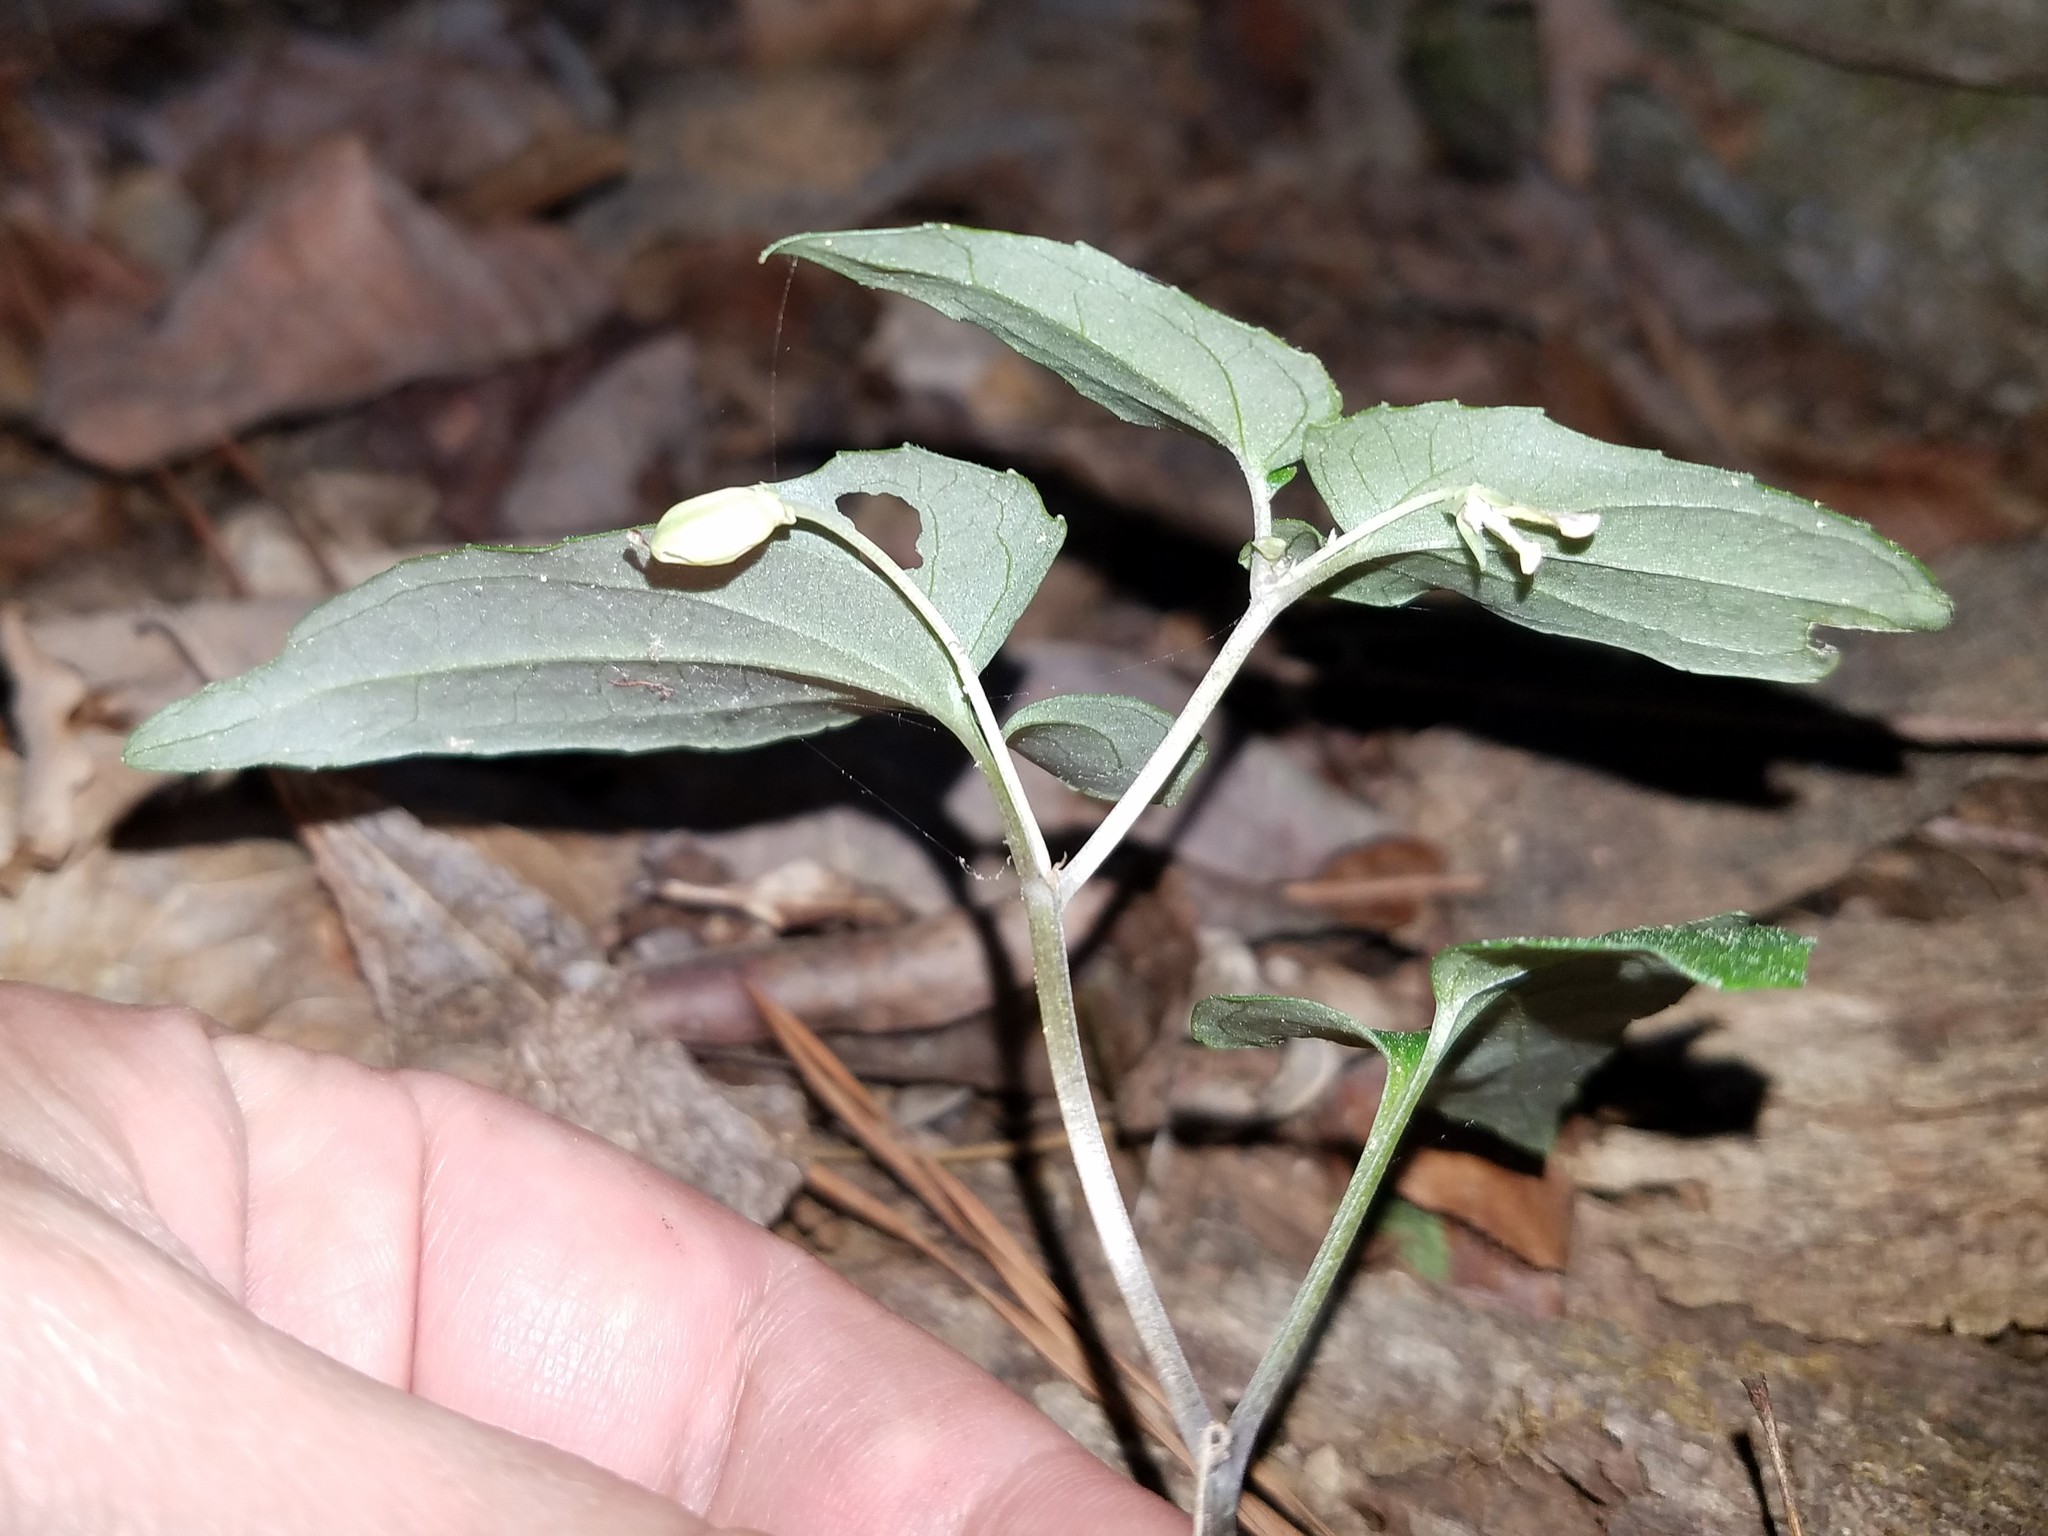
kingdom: Plantae
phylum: Tracheophyta
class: Magnoliopsida
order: Malpighiales
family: Violaceae
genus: Viola
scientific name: Viola hastata
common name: Spear-leaf violet
